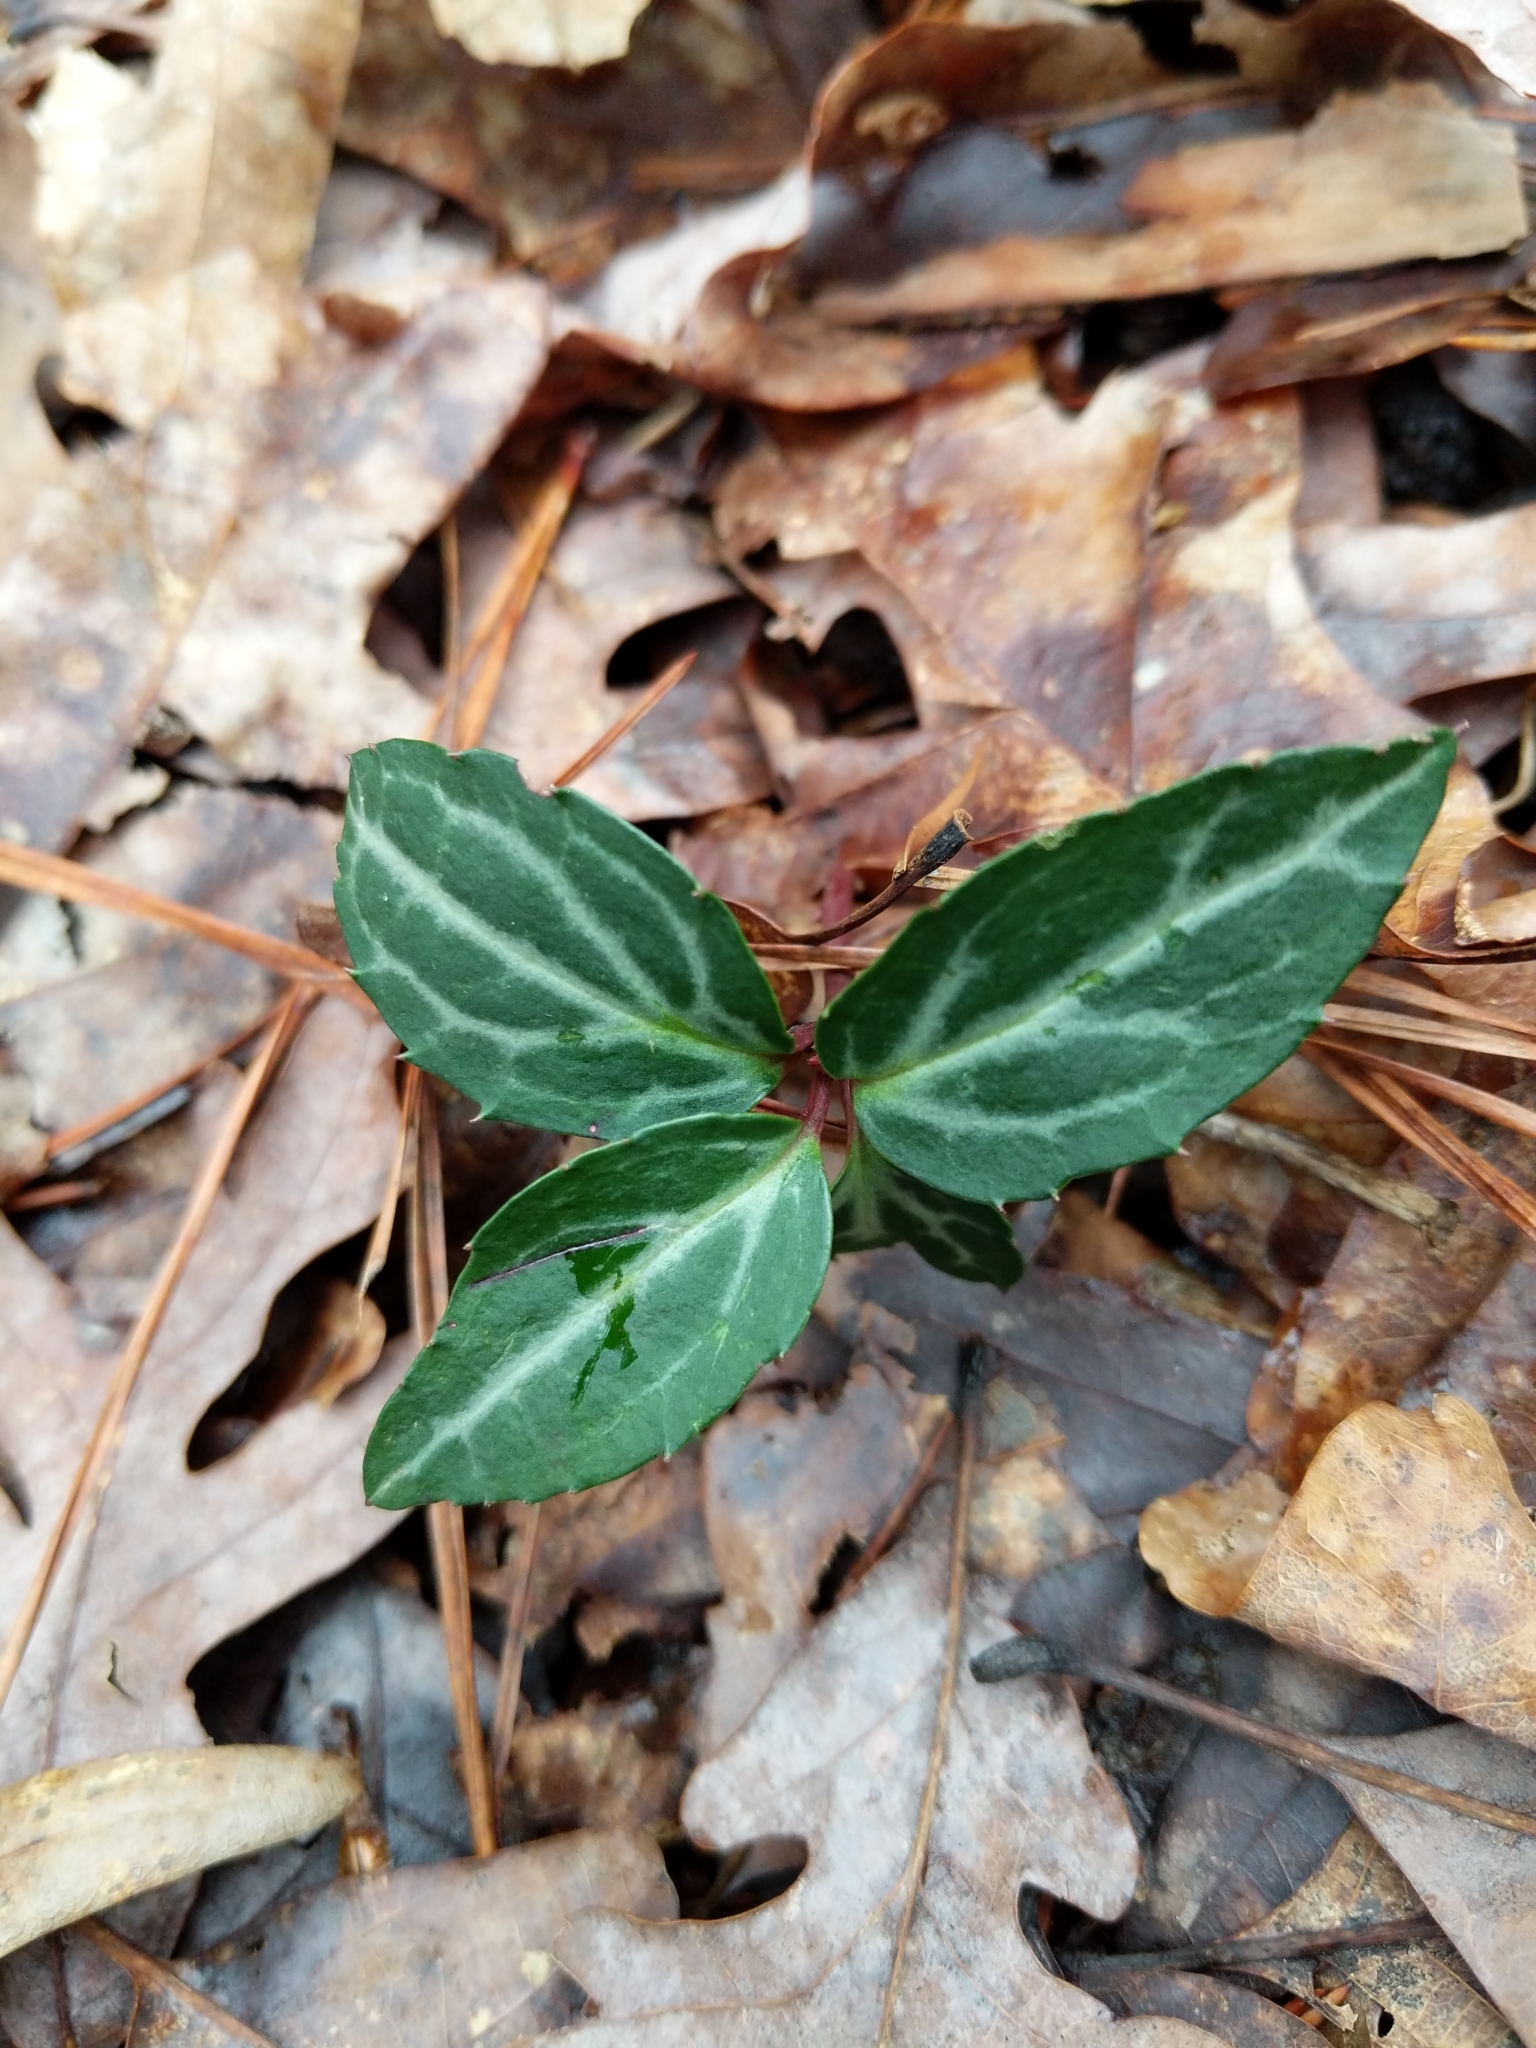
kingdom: Plantae
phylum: Tracheophyta
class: Magnoliopsida
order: Ericales
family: Ericaceae
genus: Chimaphila
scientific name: Chimaphila maculata
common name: Spotted pipsissewa
